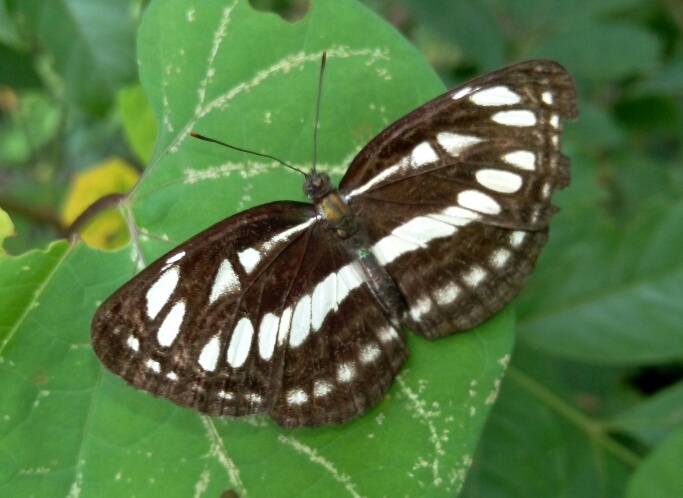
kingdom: Animalia
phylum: Arthropoda
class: Insecta
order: Lepidoptera
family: Nymphalidae
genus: Neptis
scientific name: Neptis hylas
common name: Common sailer
